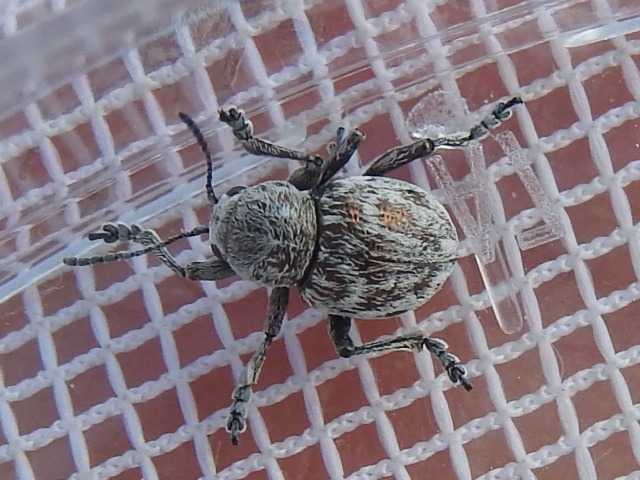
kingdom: Animalia
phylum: Arthropoda
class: Insecta
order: Coleoptera
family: Chrysomelidae
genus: Graphops
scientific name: Graphops comosa
